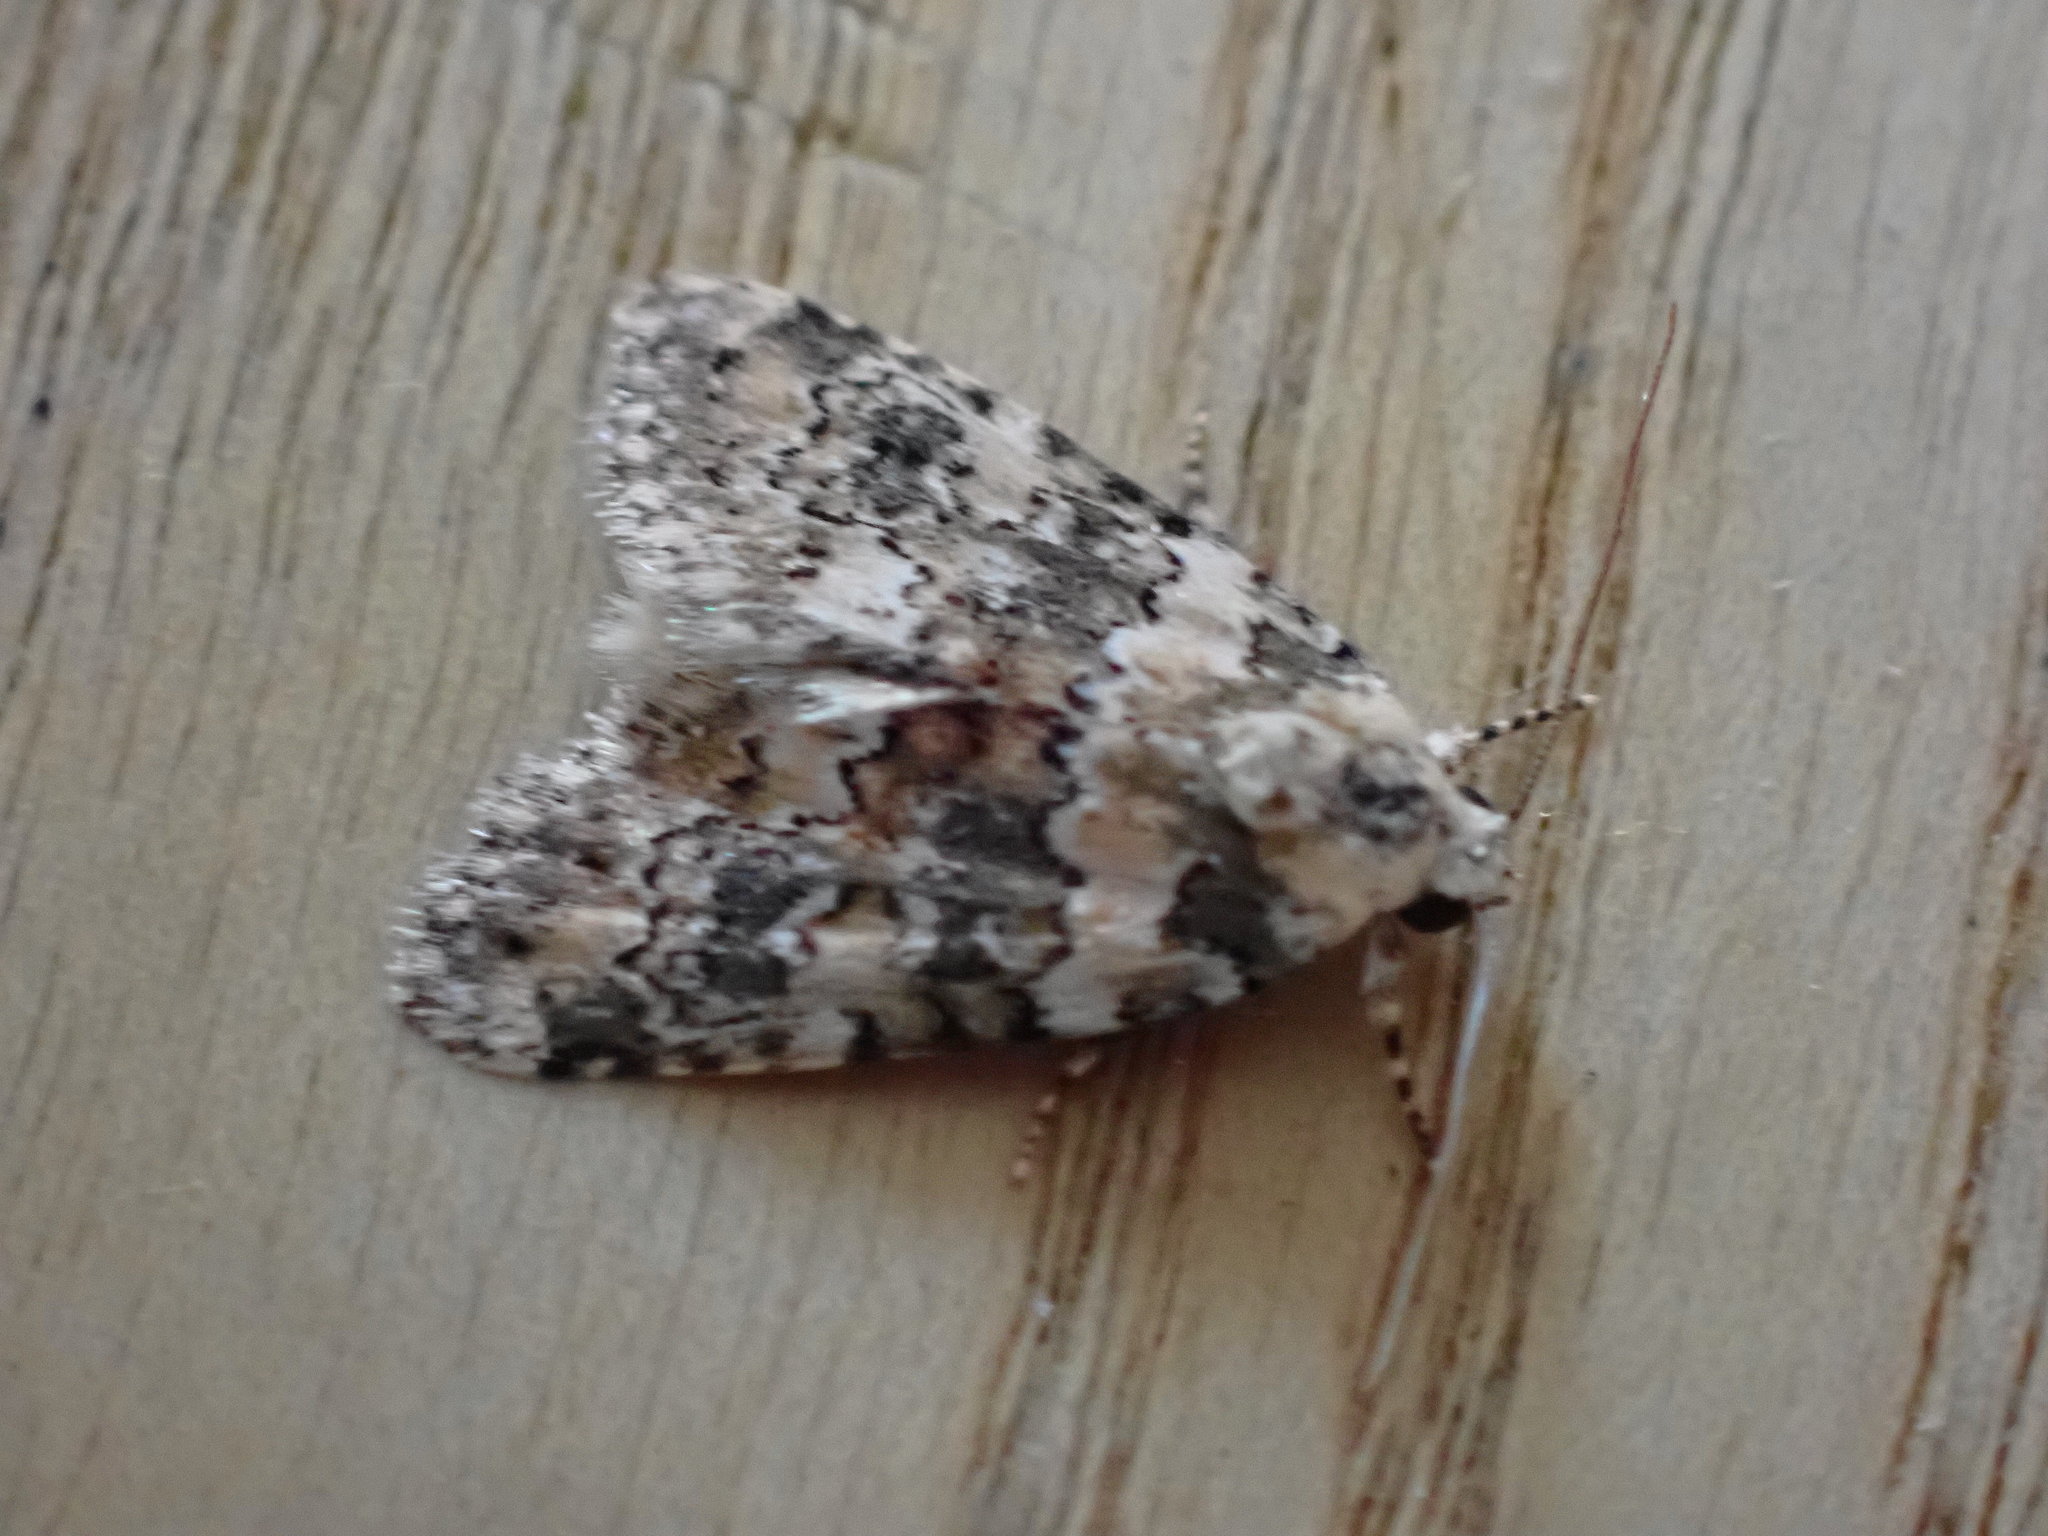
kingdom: Animalia
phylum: Arthropoda
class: Insecta
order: Lepidoptera
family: Noctuidae
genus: Bryophila
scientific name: Bryophila domestica
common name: Marbled beauty
